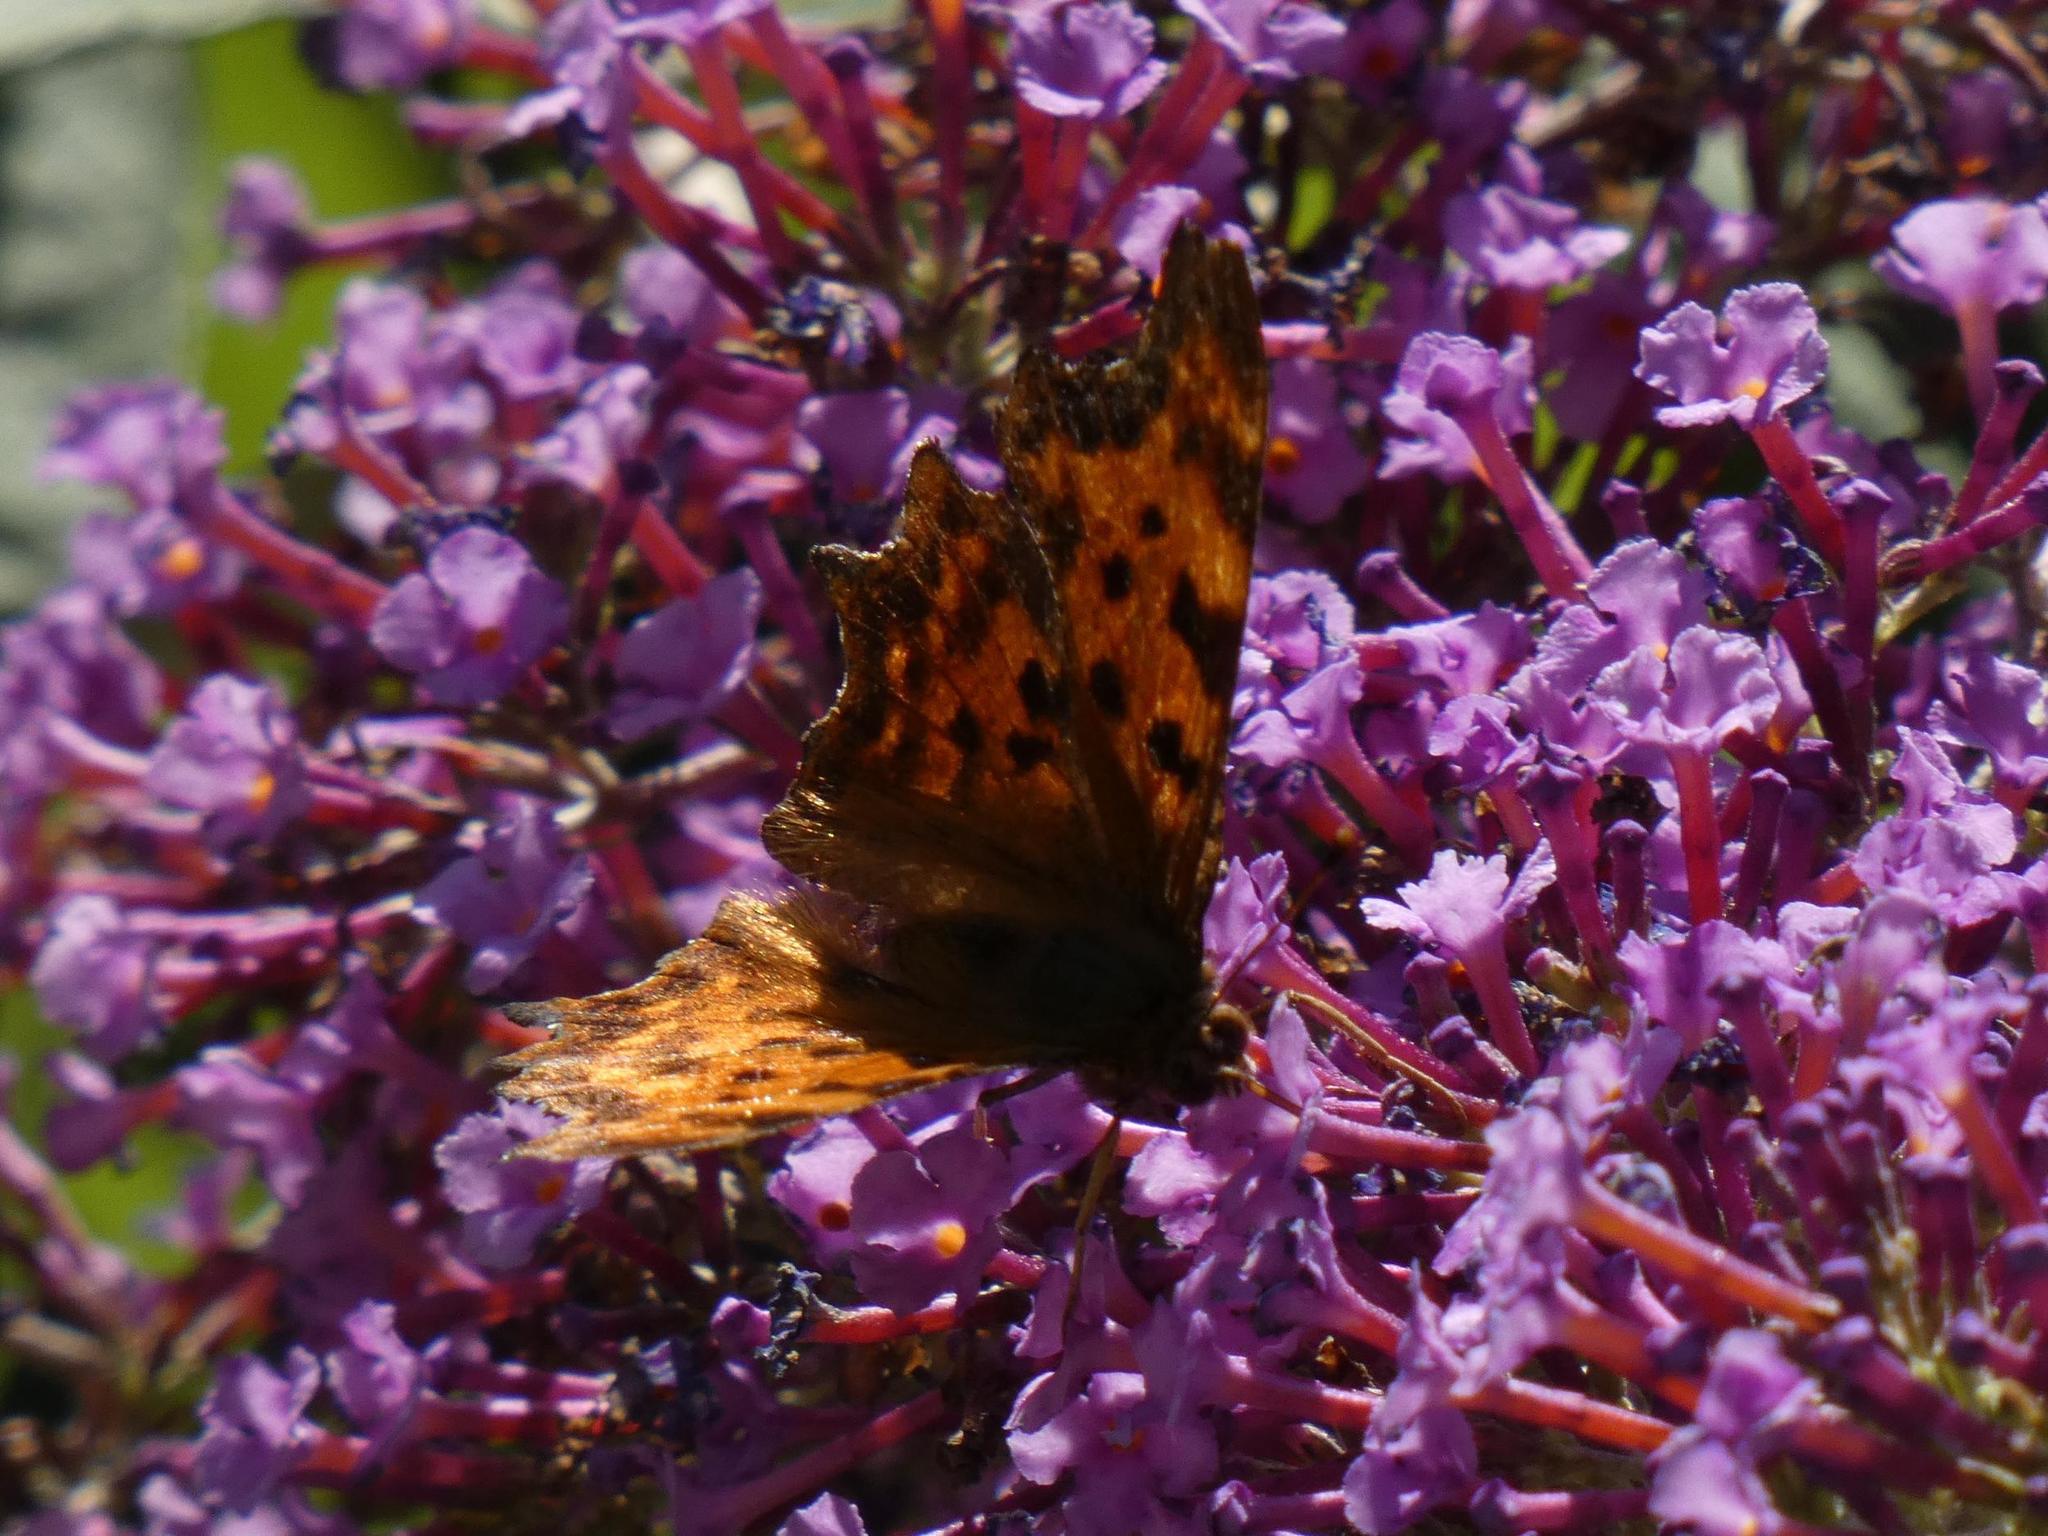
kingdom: Animalia
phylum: Arthropoda
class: Insecta
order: Lepidoptera
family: Nymphalidae
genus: Polygonia
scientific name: Polygonia c-album
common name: Comma
